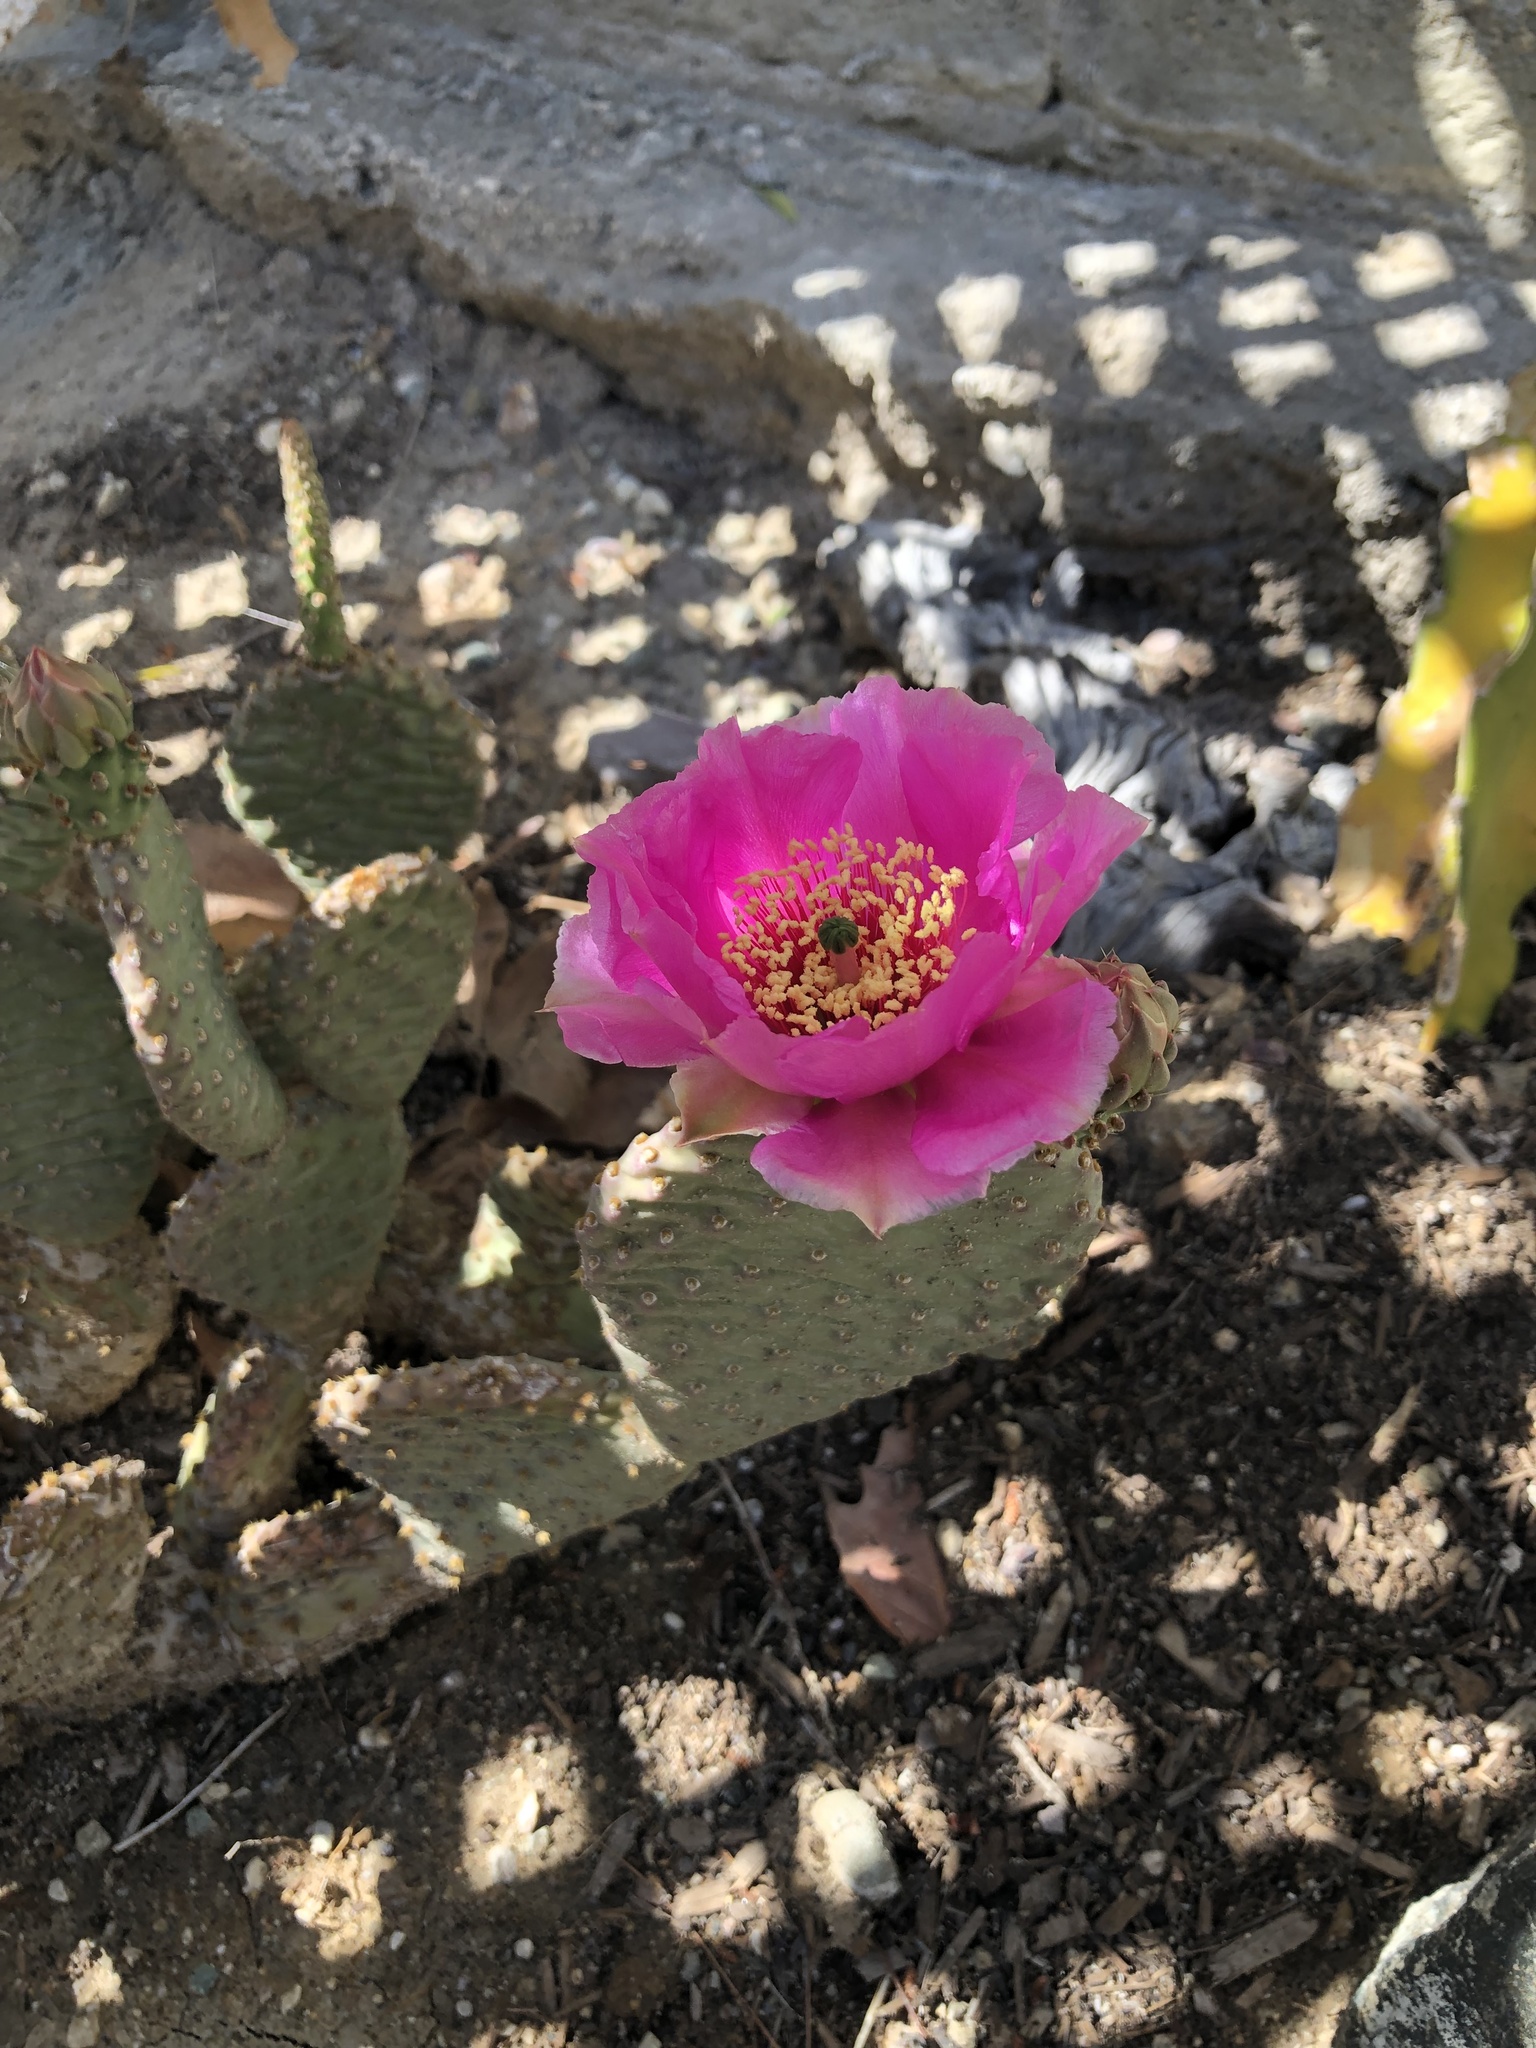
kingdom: Plantae
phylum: Tracheophyta
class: Magnoliopsida
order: Caryophyllales
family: Cactaceae
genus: Opuntia
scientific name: Opuntia basilaris
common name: Beavertail prickly-pear
